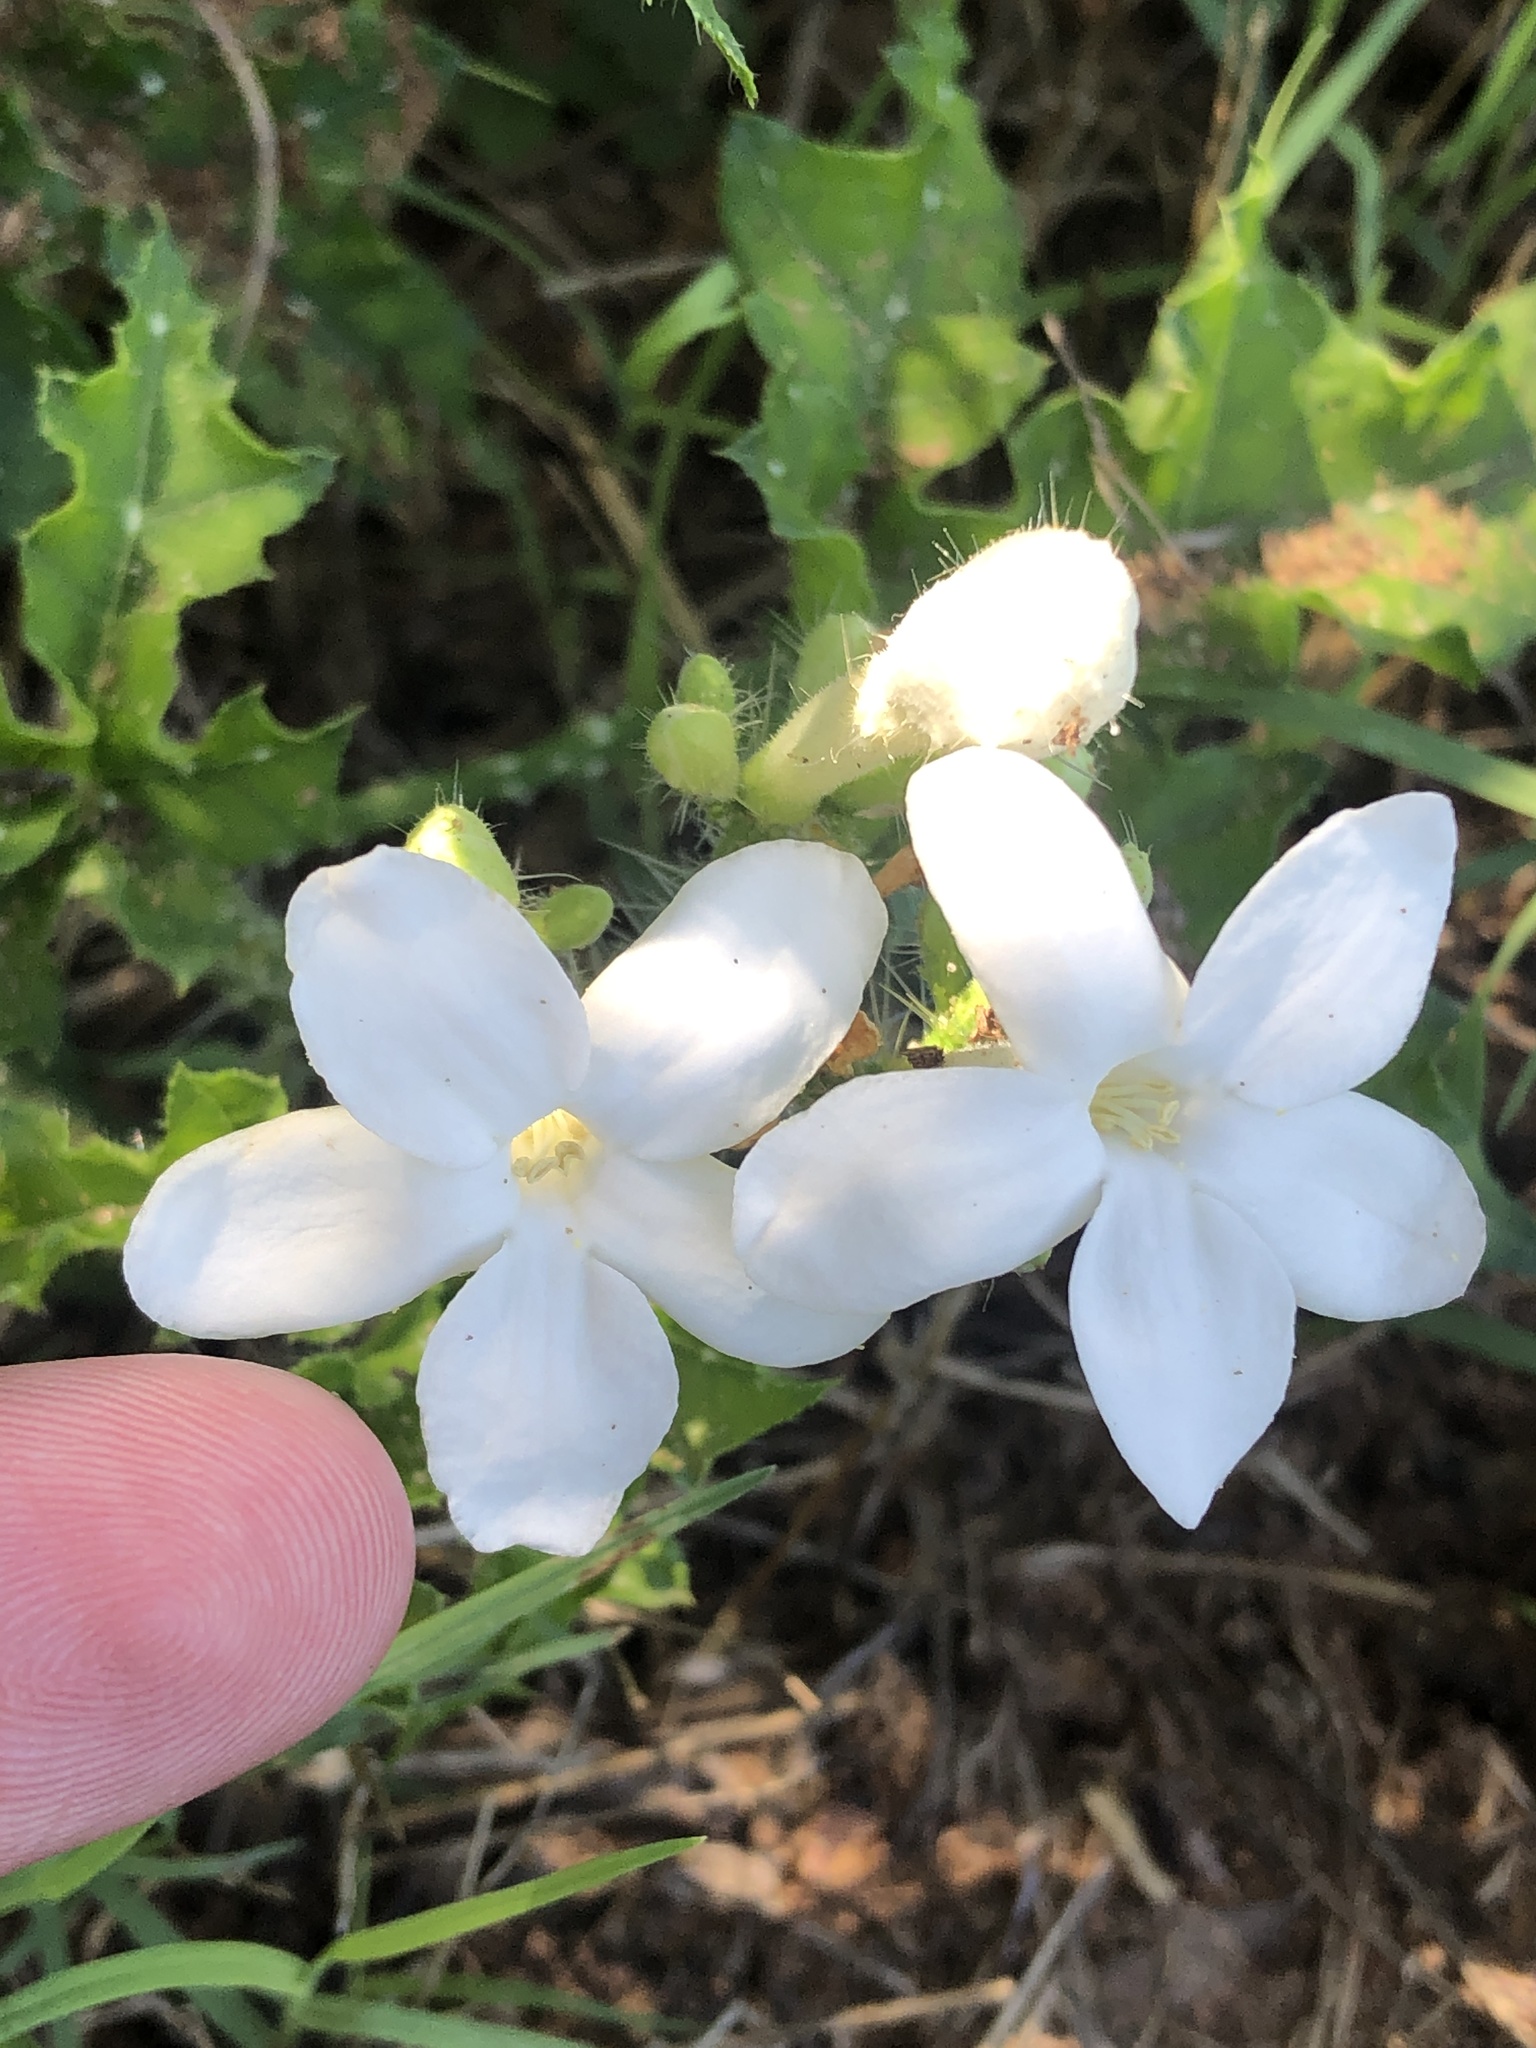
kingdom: Plantae
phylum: Tracheophyta
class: Magnoliopsida
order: Malpighiales
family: Euphorbiaceae
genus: Cnidoscolus
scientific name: Cnidoscolus texanus
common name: Texas bull-nettle
